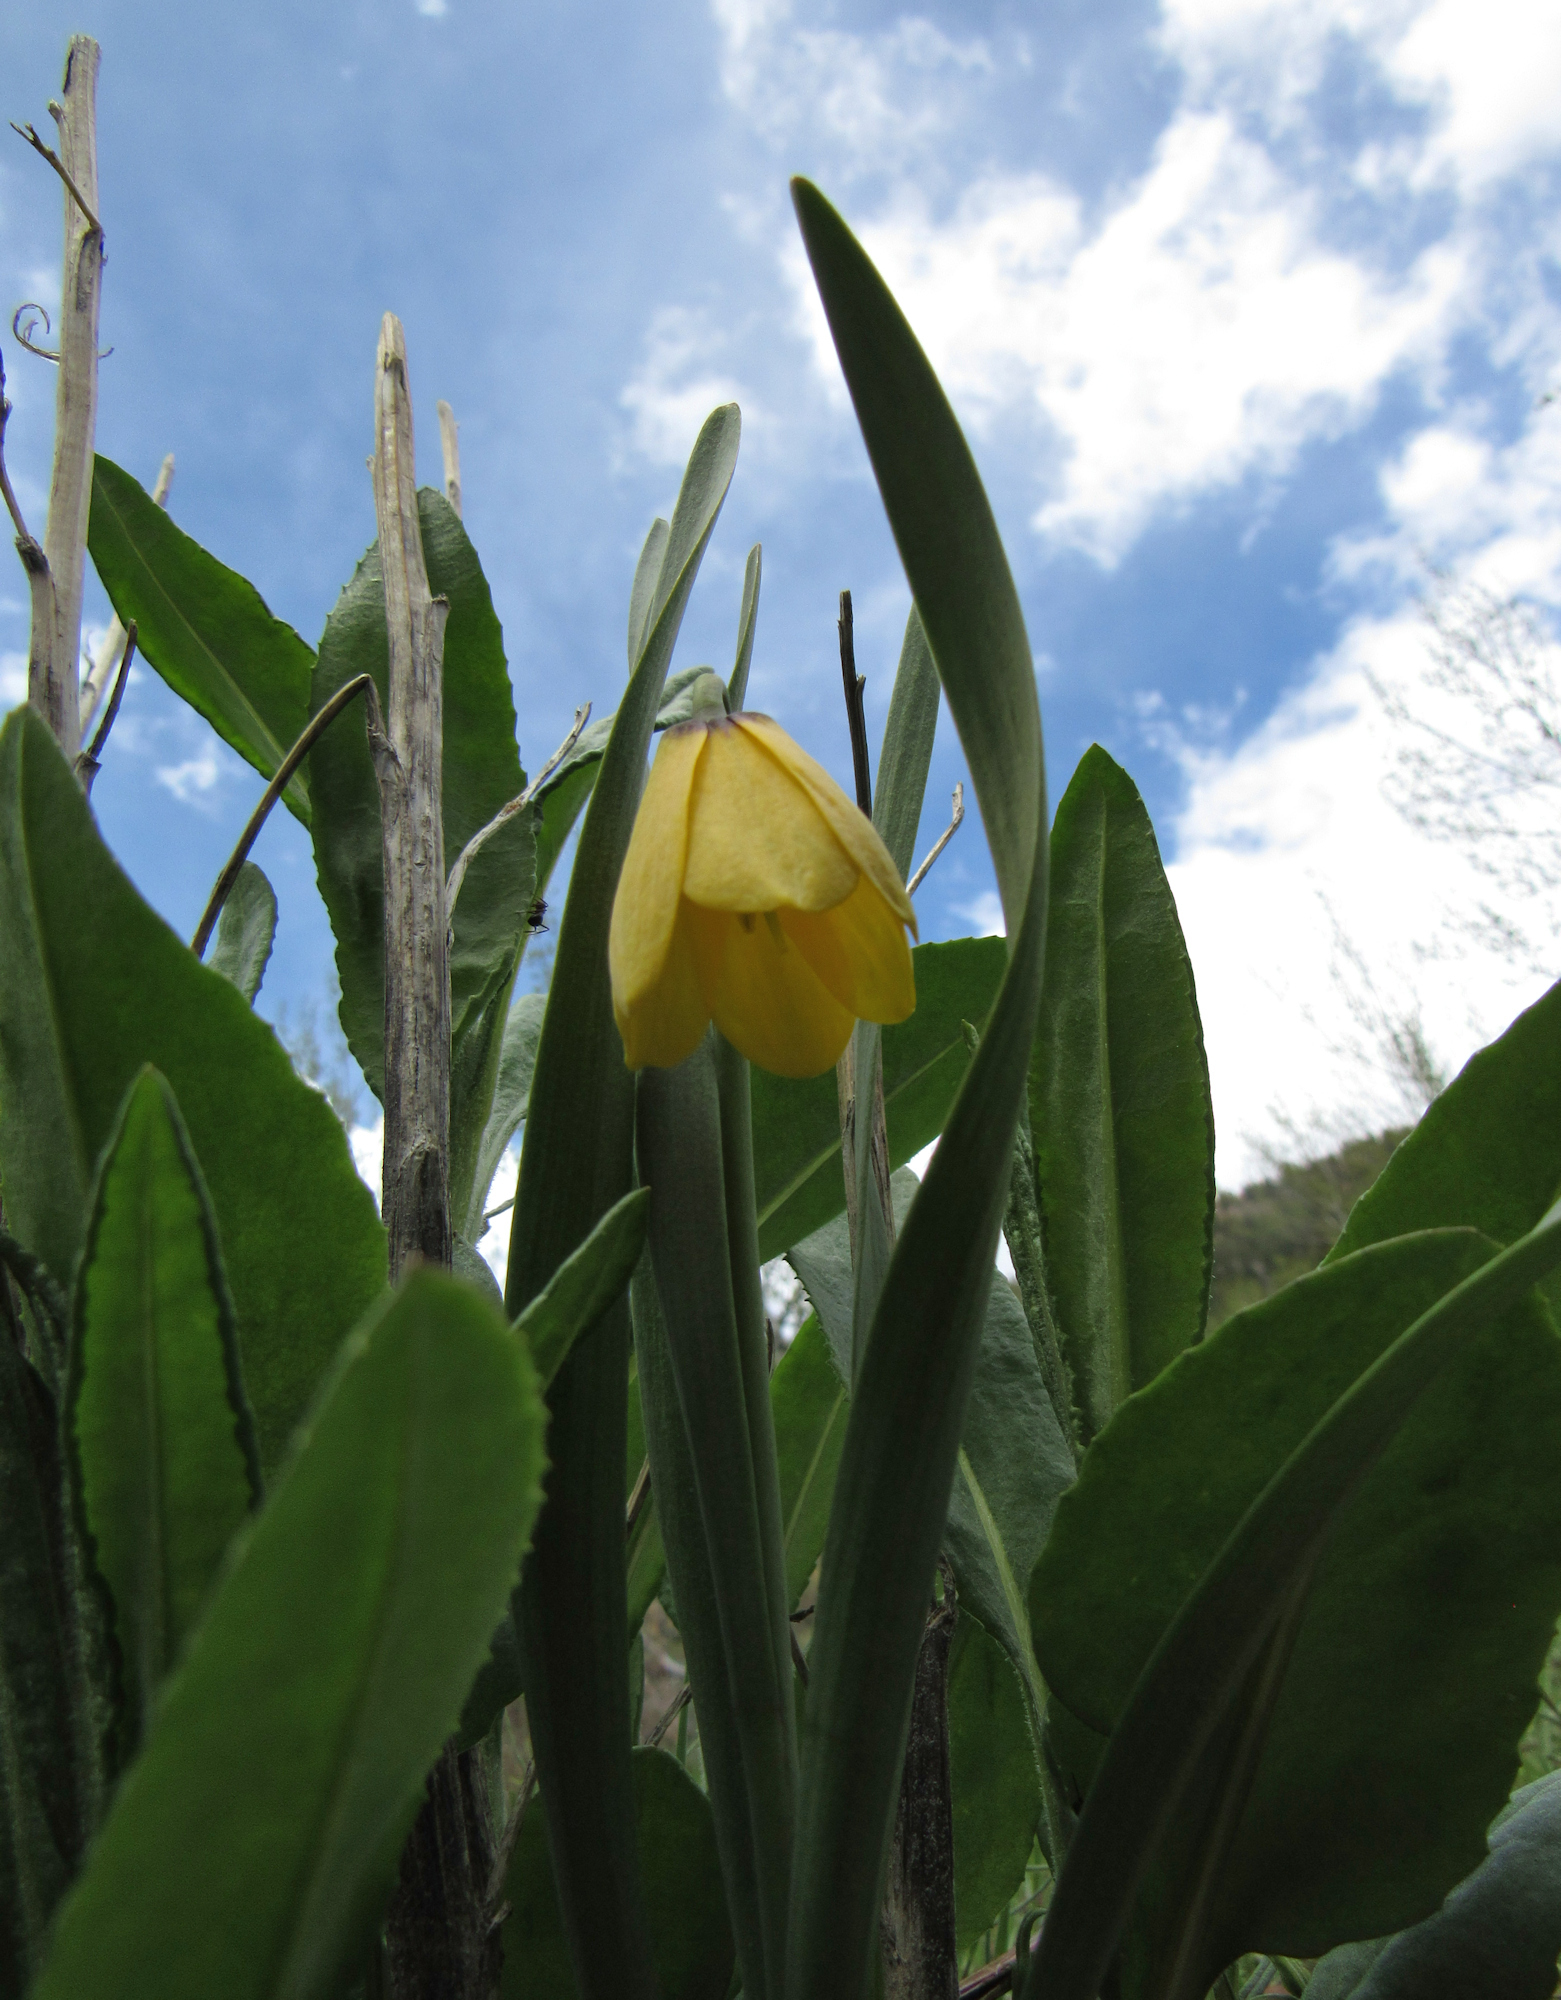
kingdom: Plantae
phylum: Tracheophyta
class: Liliopsida
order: Liliales
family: Liliaceae
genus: Fritillaria
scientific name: Fritillaria pudica
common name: Yellow fritillary
